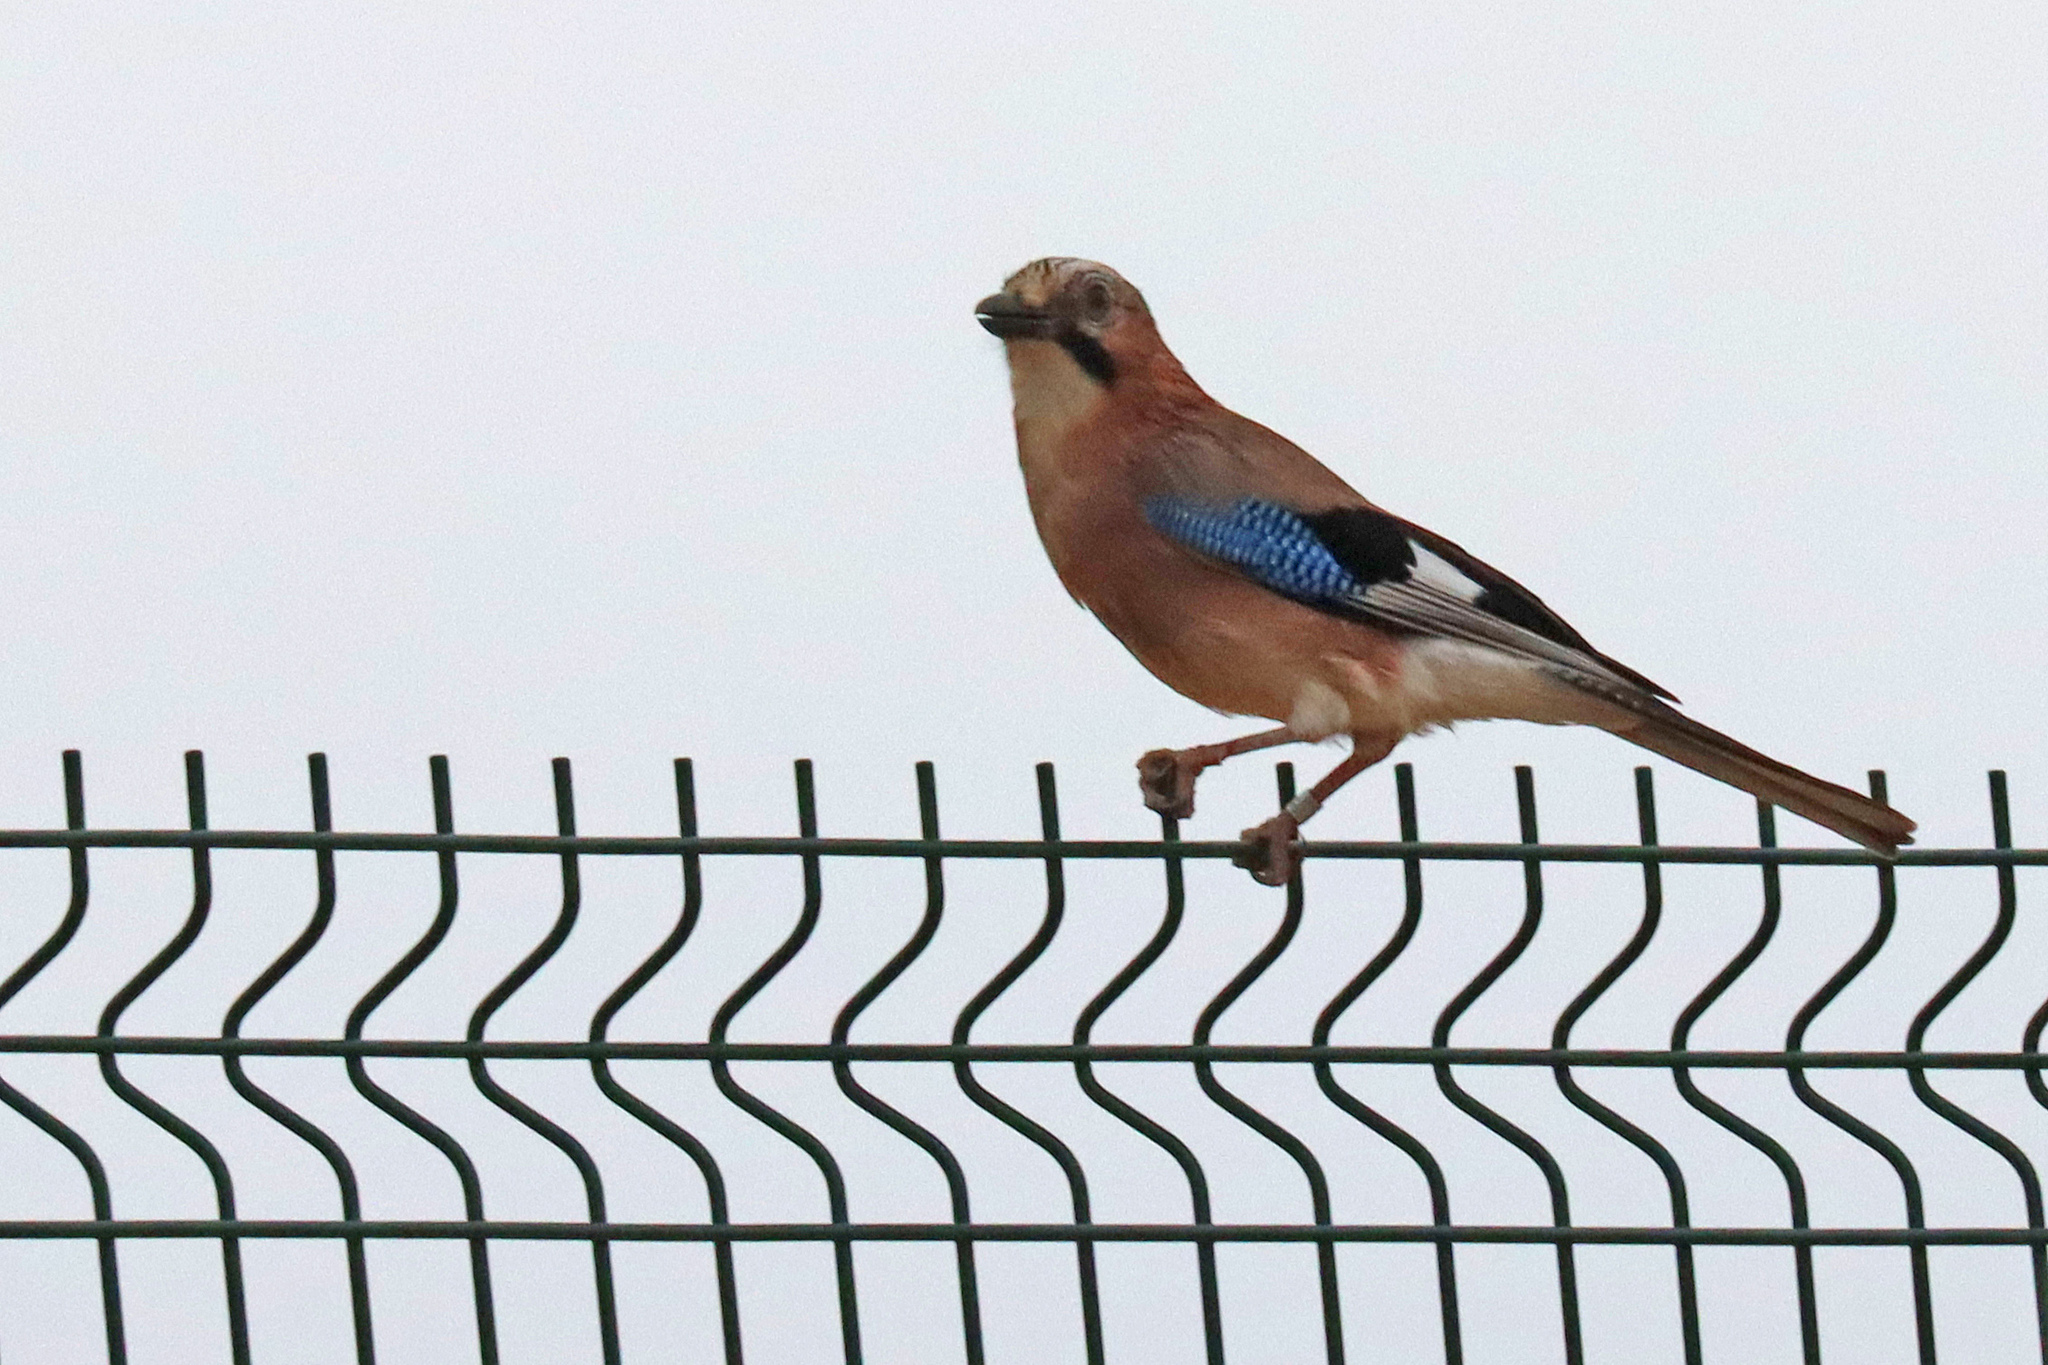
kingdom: Animalia
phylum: Chordata
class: Aves
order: Passeriformes
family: Corvidae
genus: Garrulus
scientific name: Garrulus glandarius
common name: Eurasian jay
